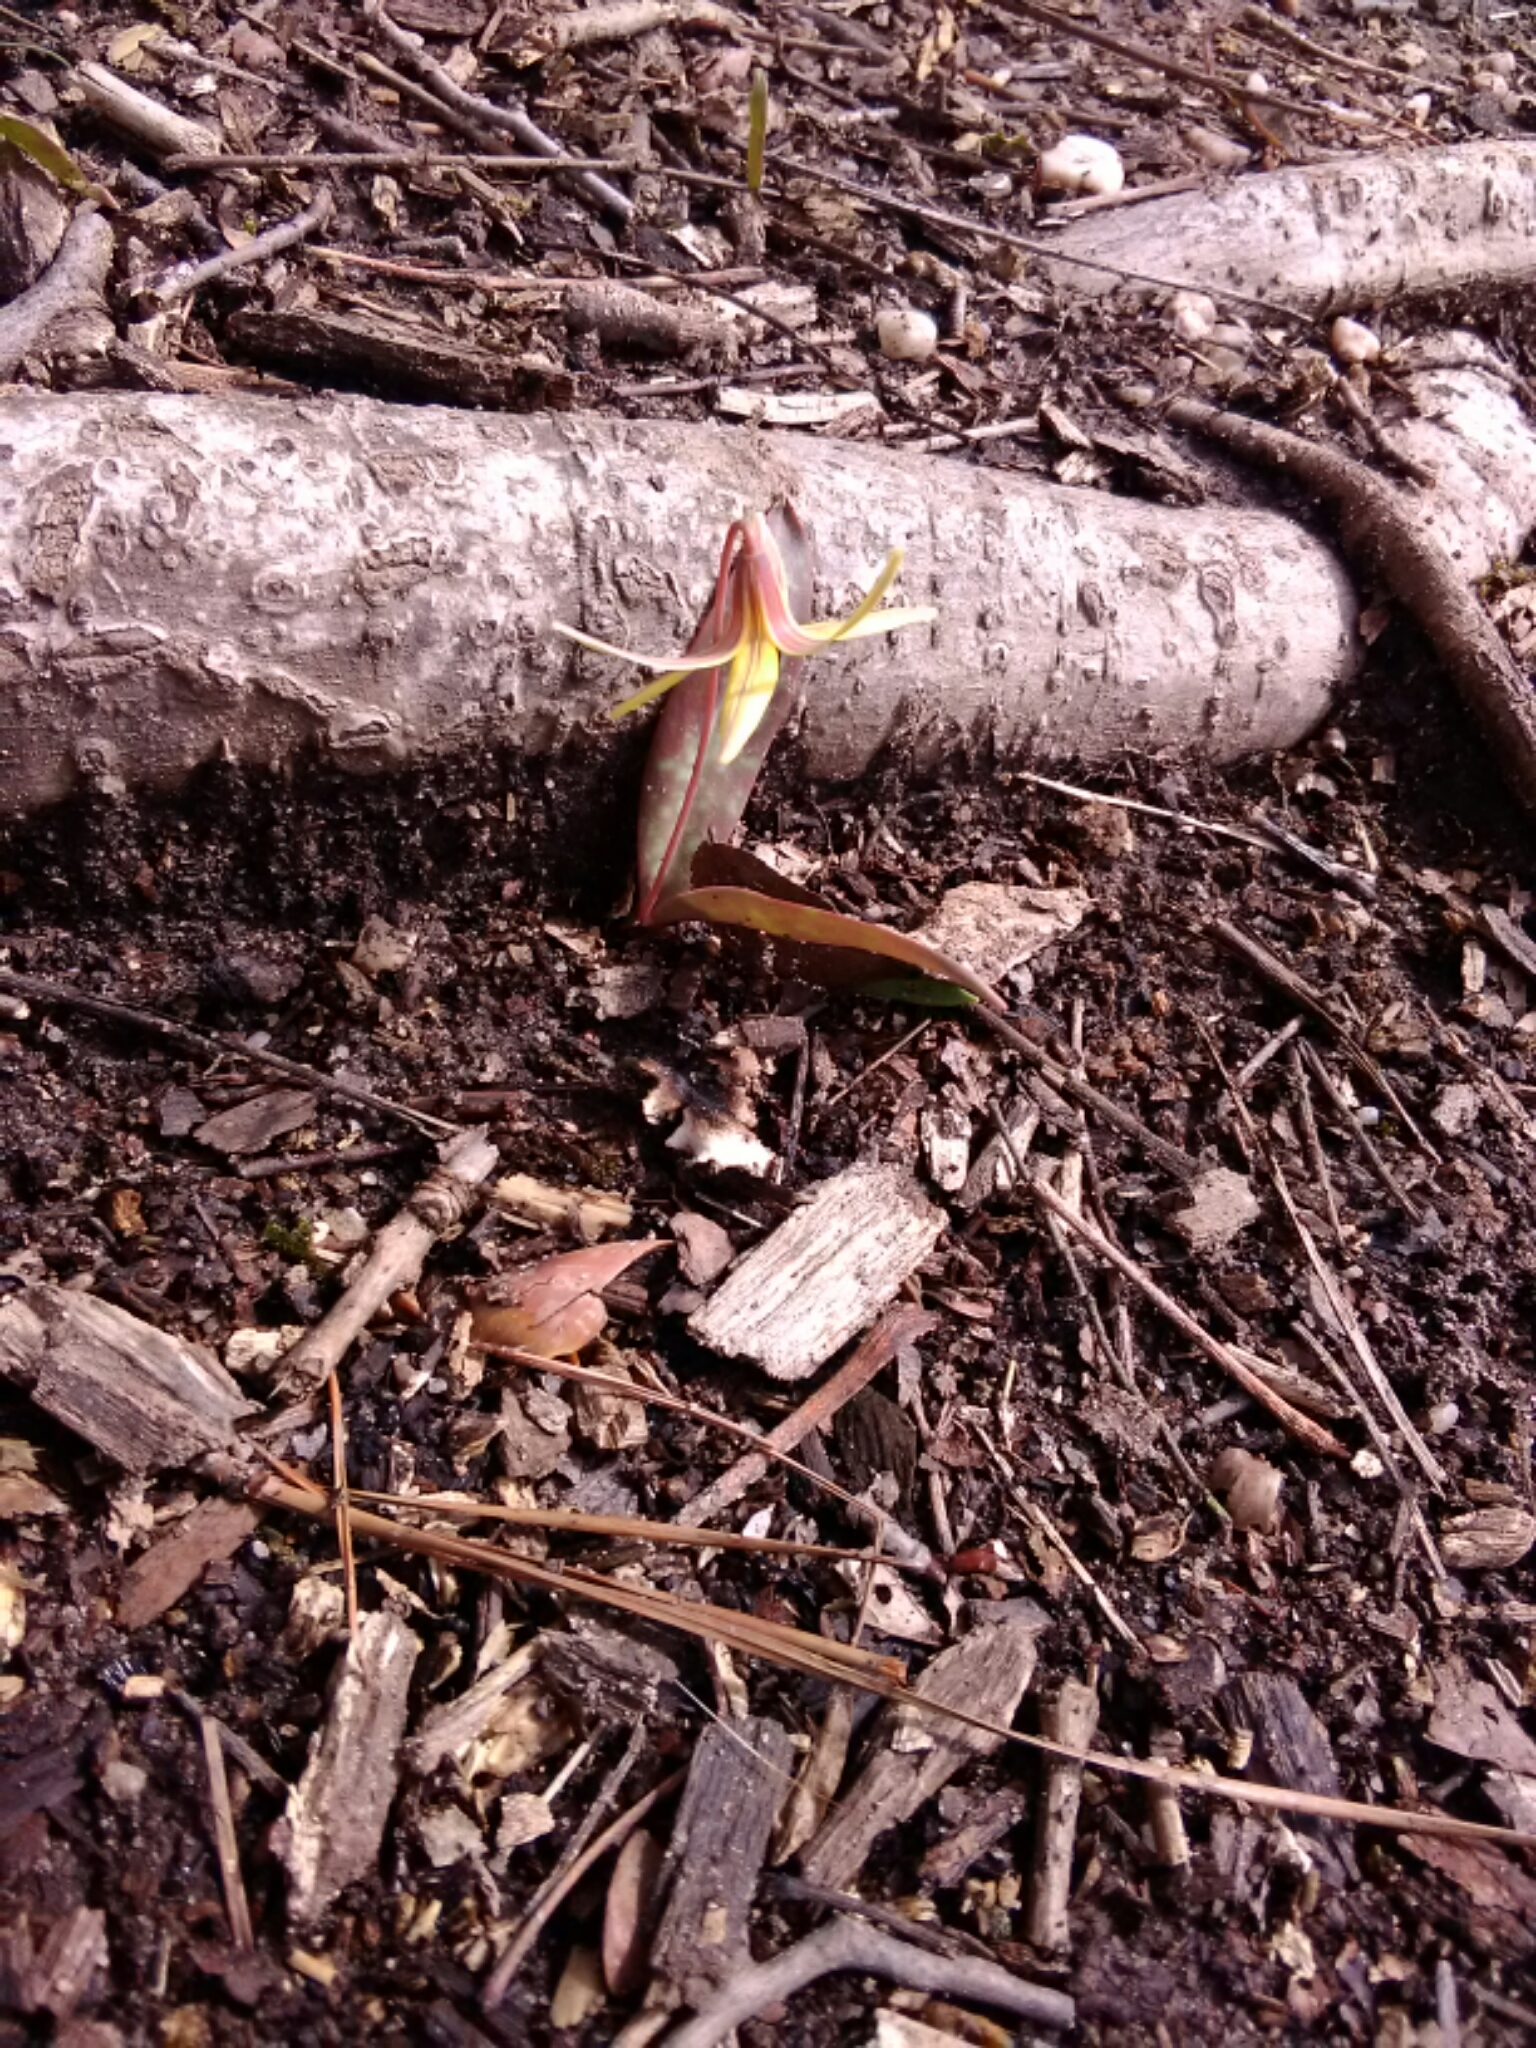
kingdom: Plantae
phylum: Tracheophyta
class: Liliopsida
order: Liliales
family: Liliaceae
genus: Erythronium
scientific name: Erythronium umbilicatum
